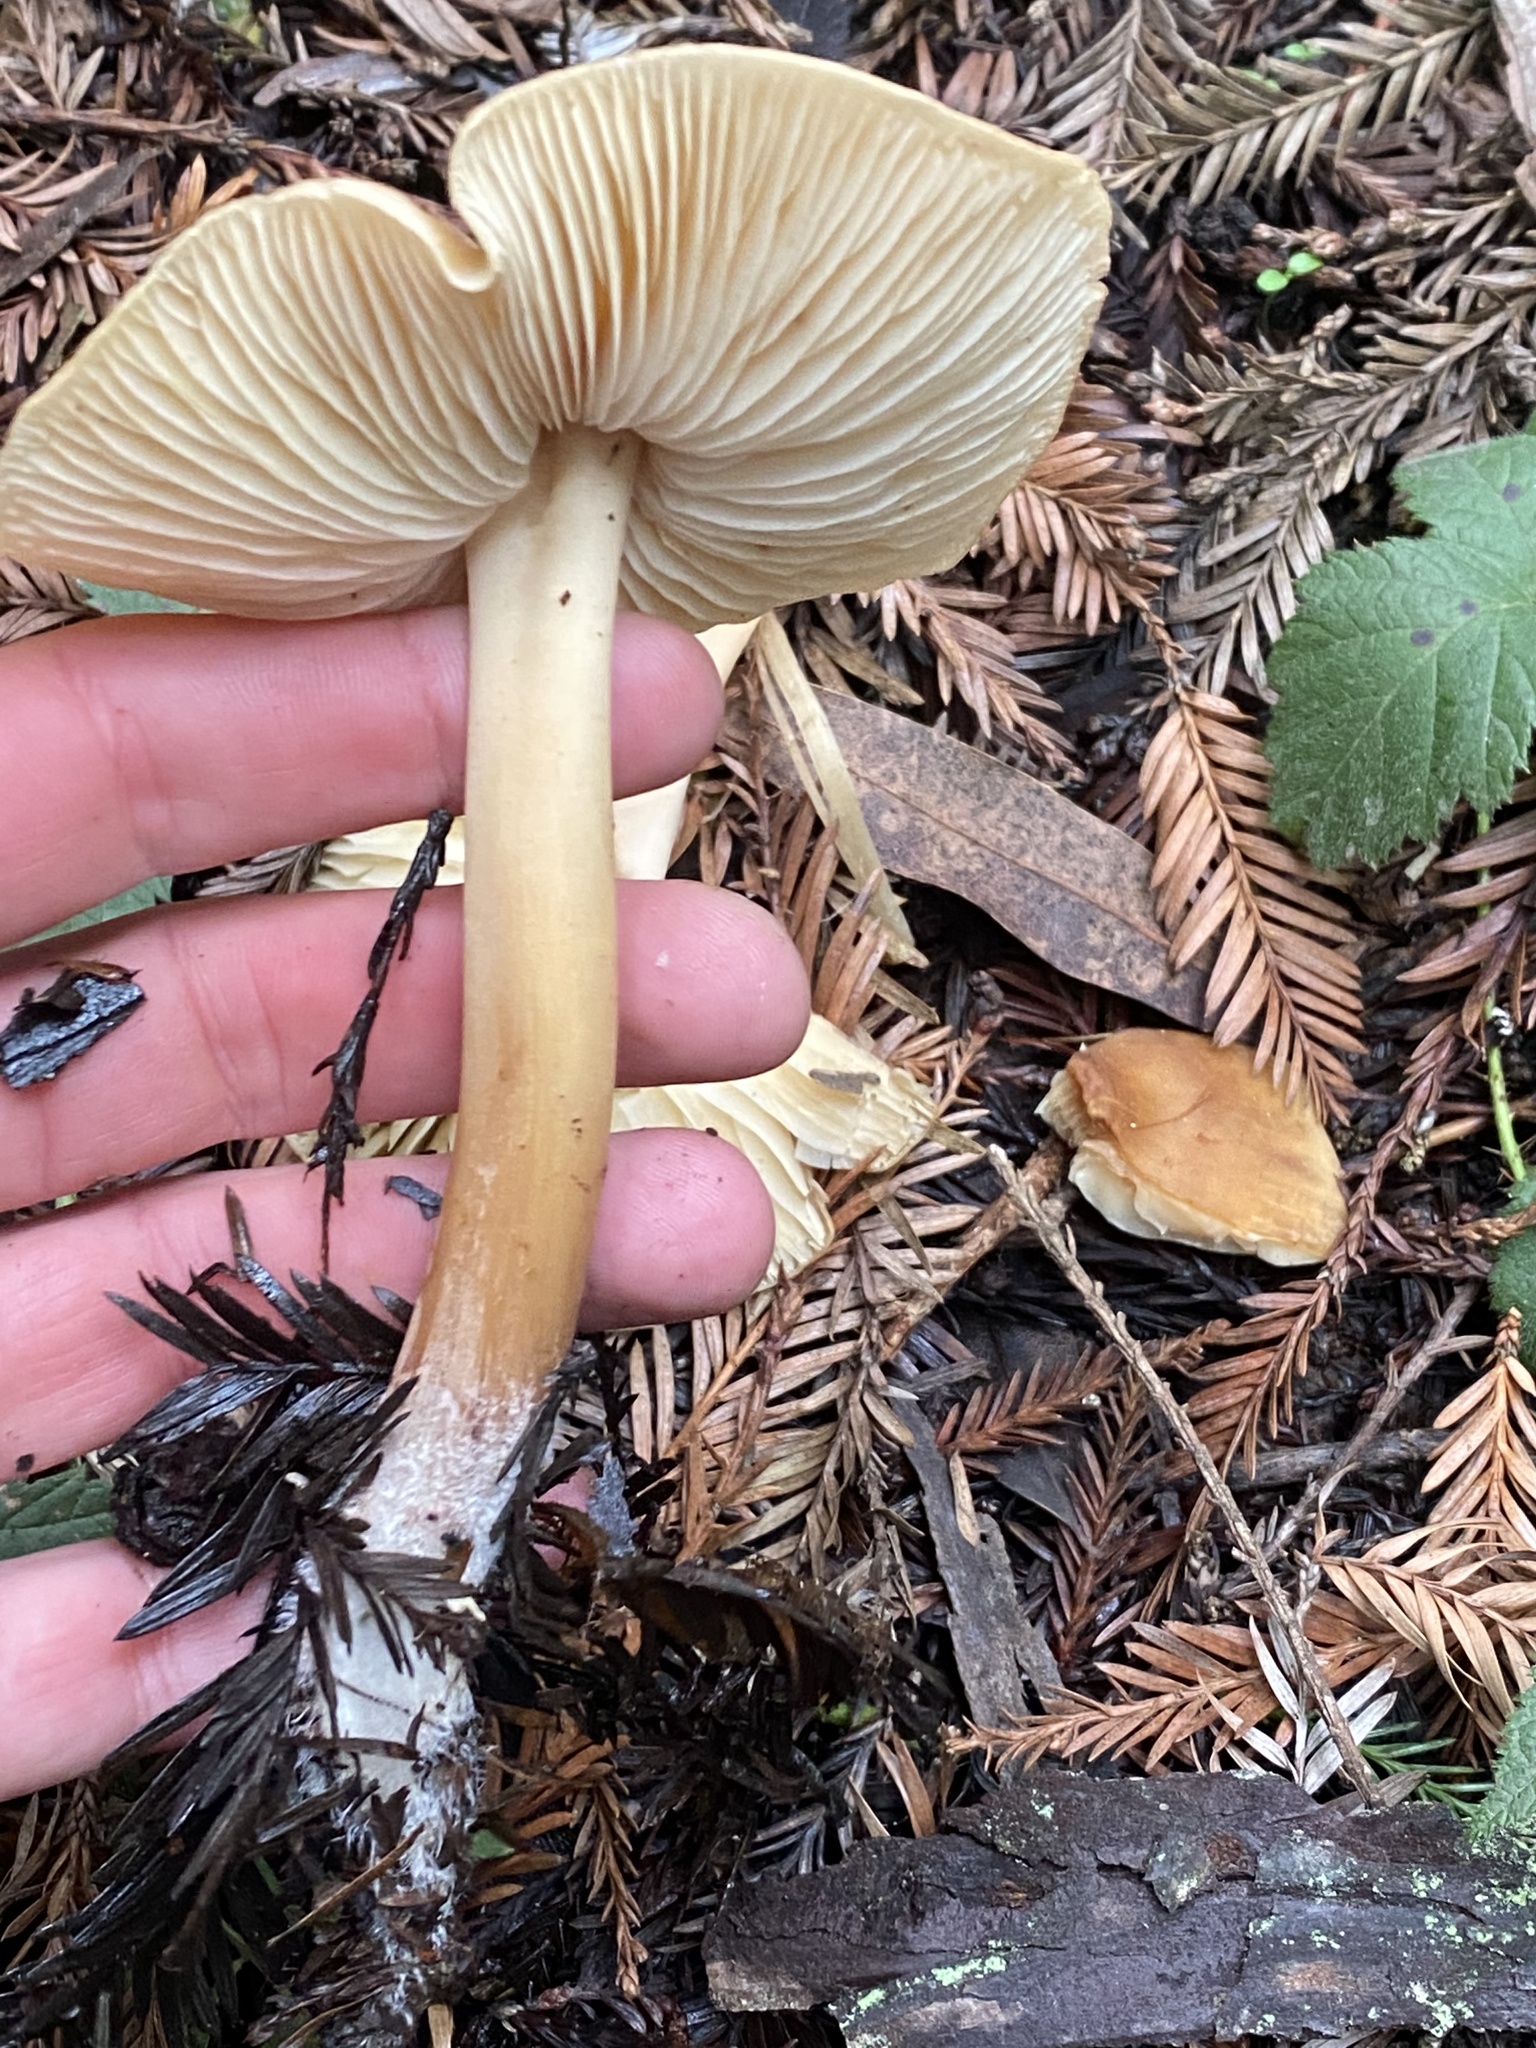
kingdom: Fungi
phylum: Basidiomycota
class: Agaricomycetes
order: Agaricales
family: Tricholomataceae
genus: Caulorhiza
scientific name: Caulorhiza umbonata
